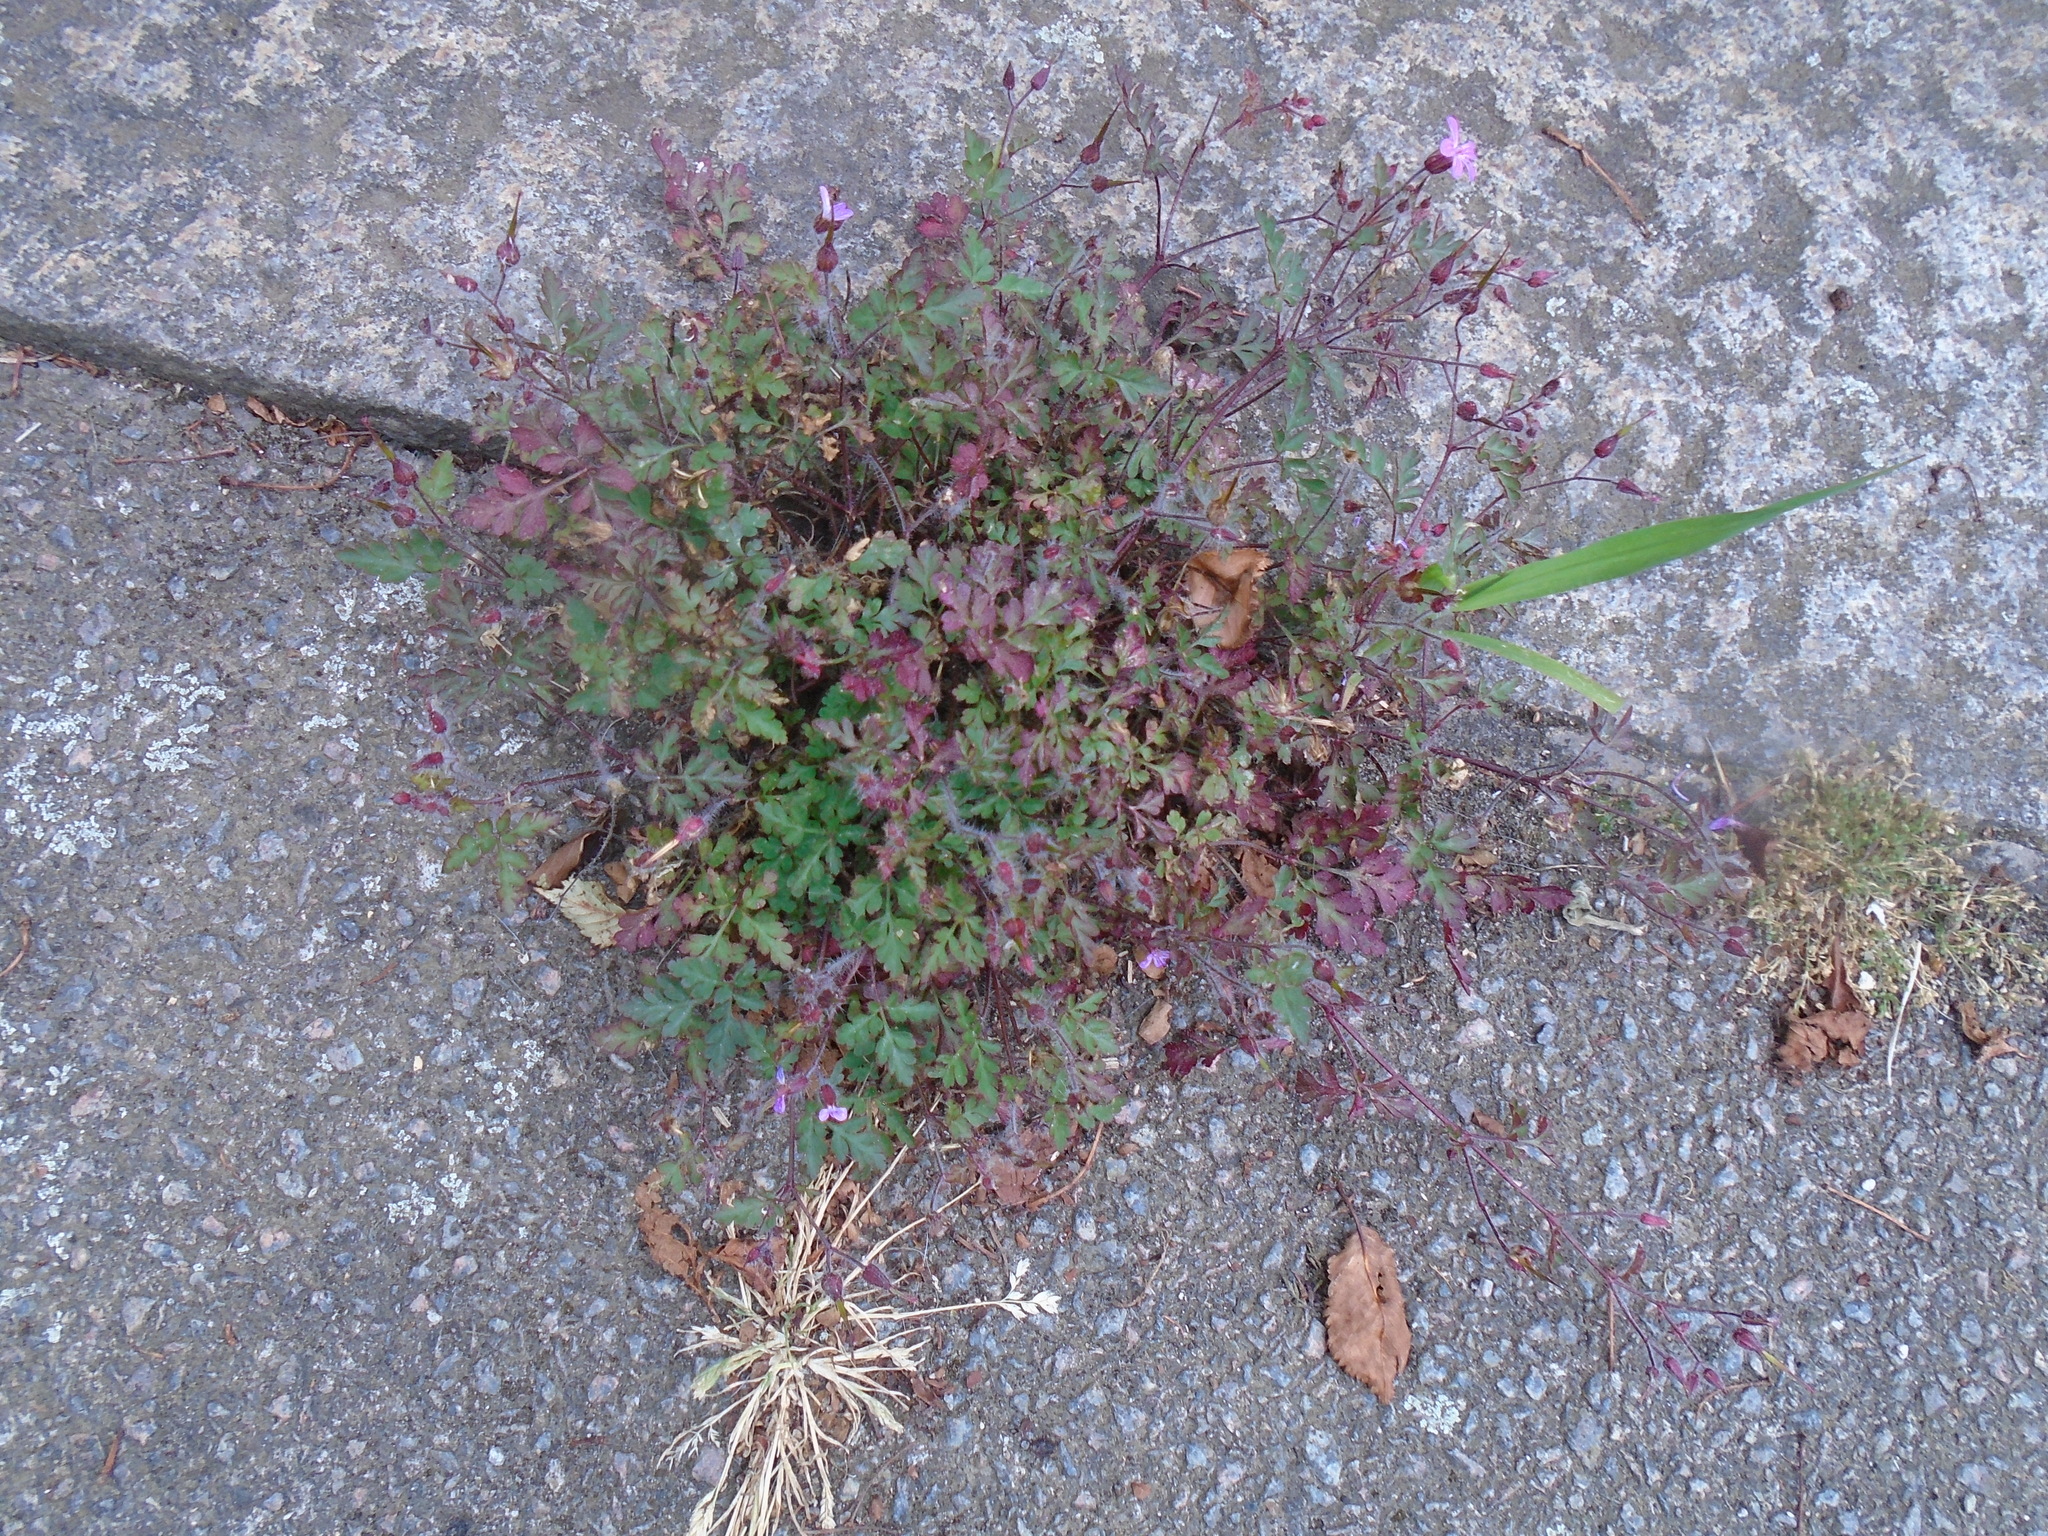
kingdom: Plantae
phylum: Tracheophyta
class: Magnoliopsida
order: Geraniales
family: Geraniaceae
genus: Geranium
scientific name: Geranium robertianum
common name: Herb-robert
